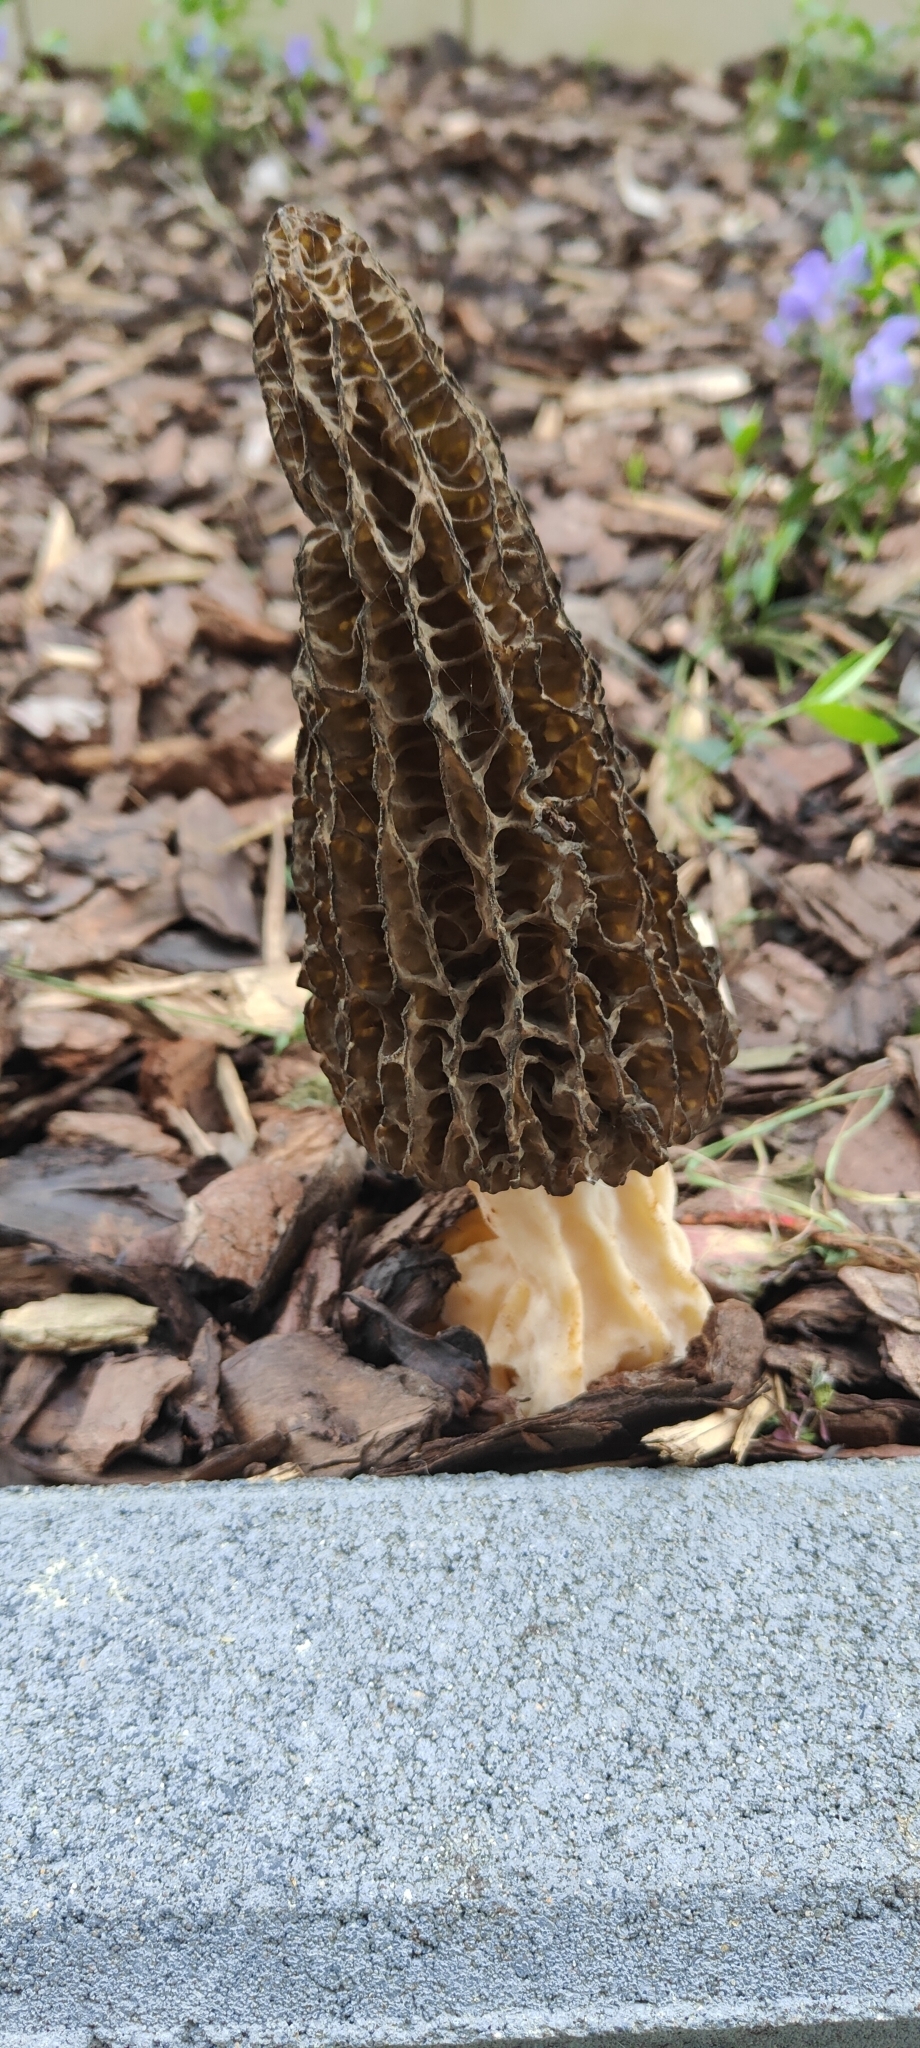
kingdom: Fungi
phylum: Ascomycota
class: Pezizomycetes
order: Pezizales
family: Morchellaceae
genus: Morchella
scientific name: Morchella importuna
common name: Landscaping black morel
